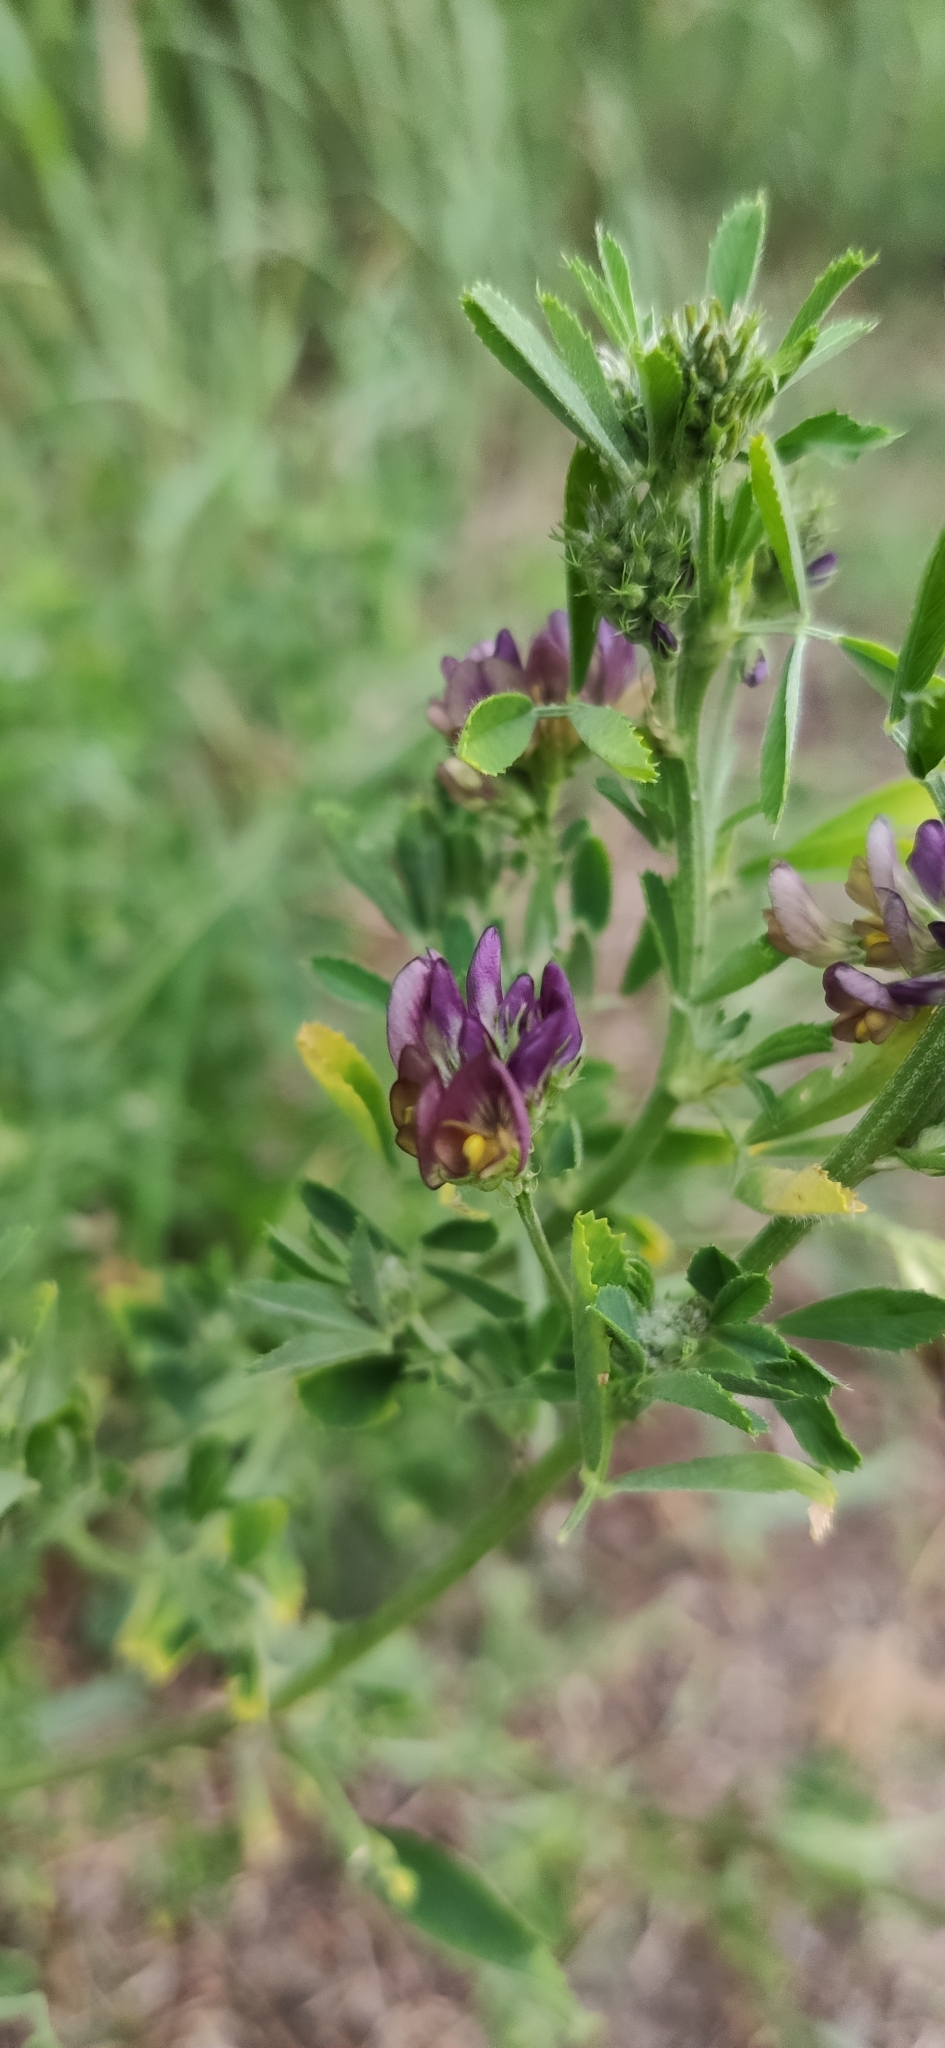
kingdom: Plantae
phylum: Tracheophyta
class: Magnoliopsida
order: Fabales
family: Fabaceae
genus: Medicago
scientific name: Medicago varia
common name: Sand lucerne
